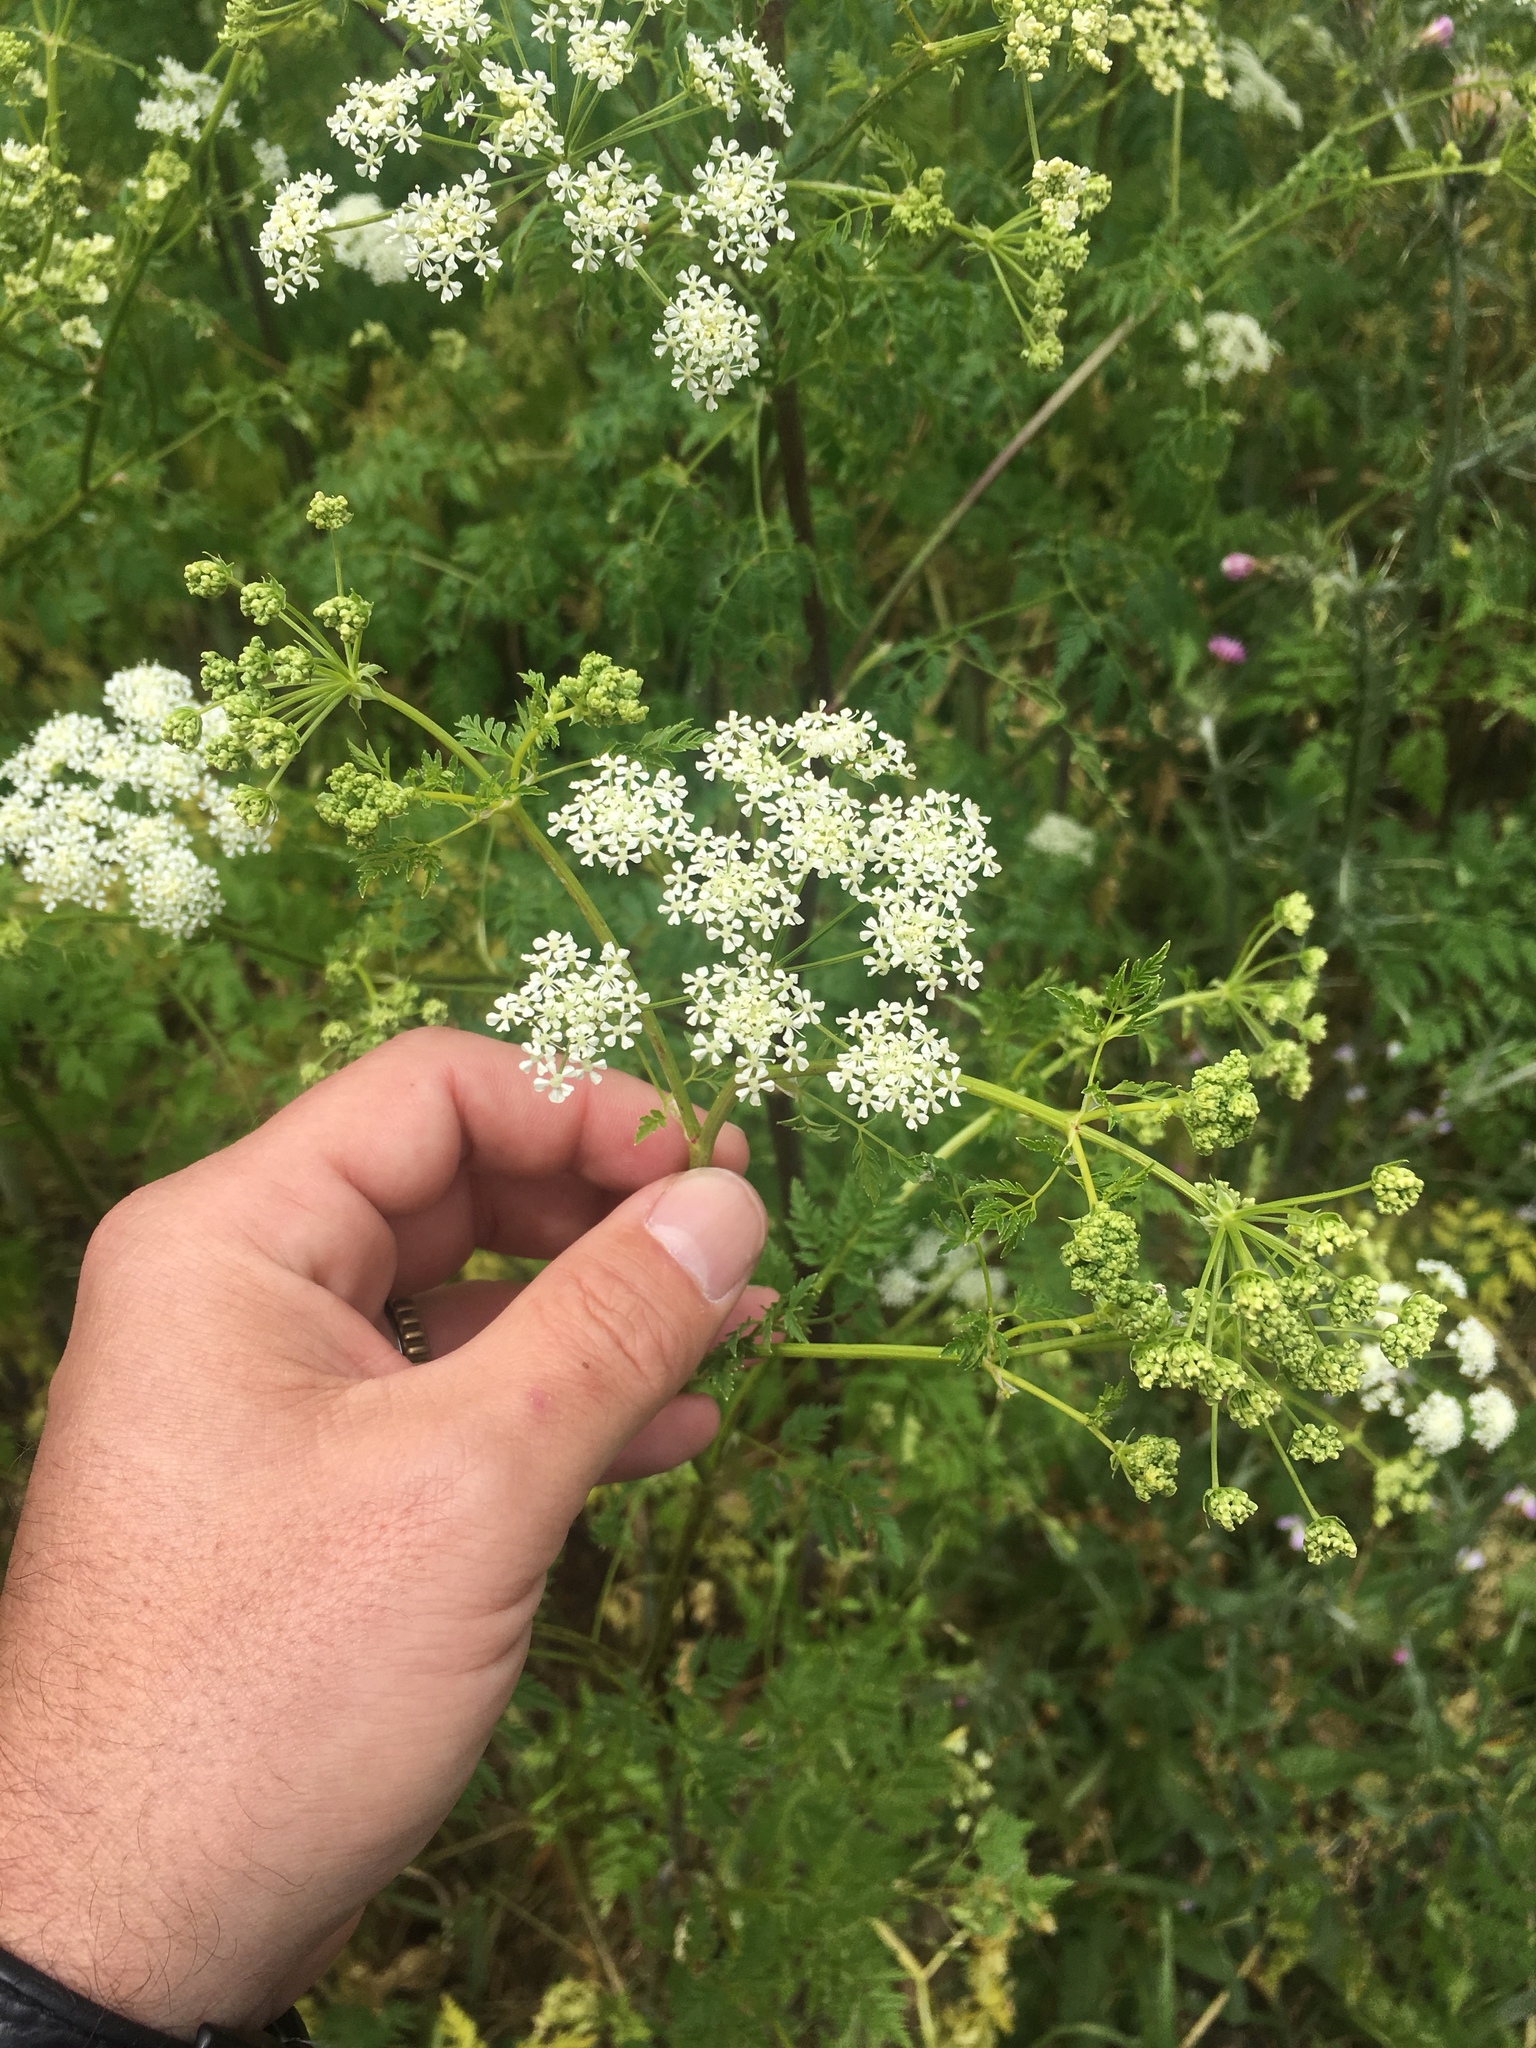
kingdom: Plantae
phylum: Tracheophyta
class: Magnoliopsida
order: Apiales
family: Apiaceae
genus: Conium
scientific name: Conium maculatum
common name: Hemlock
